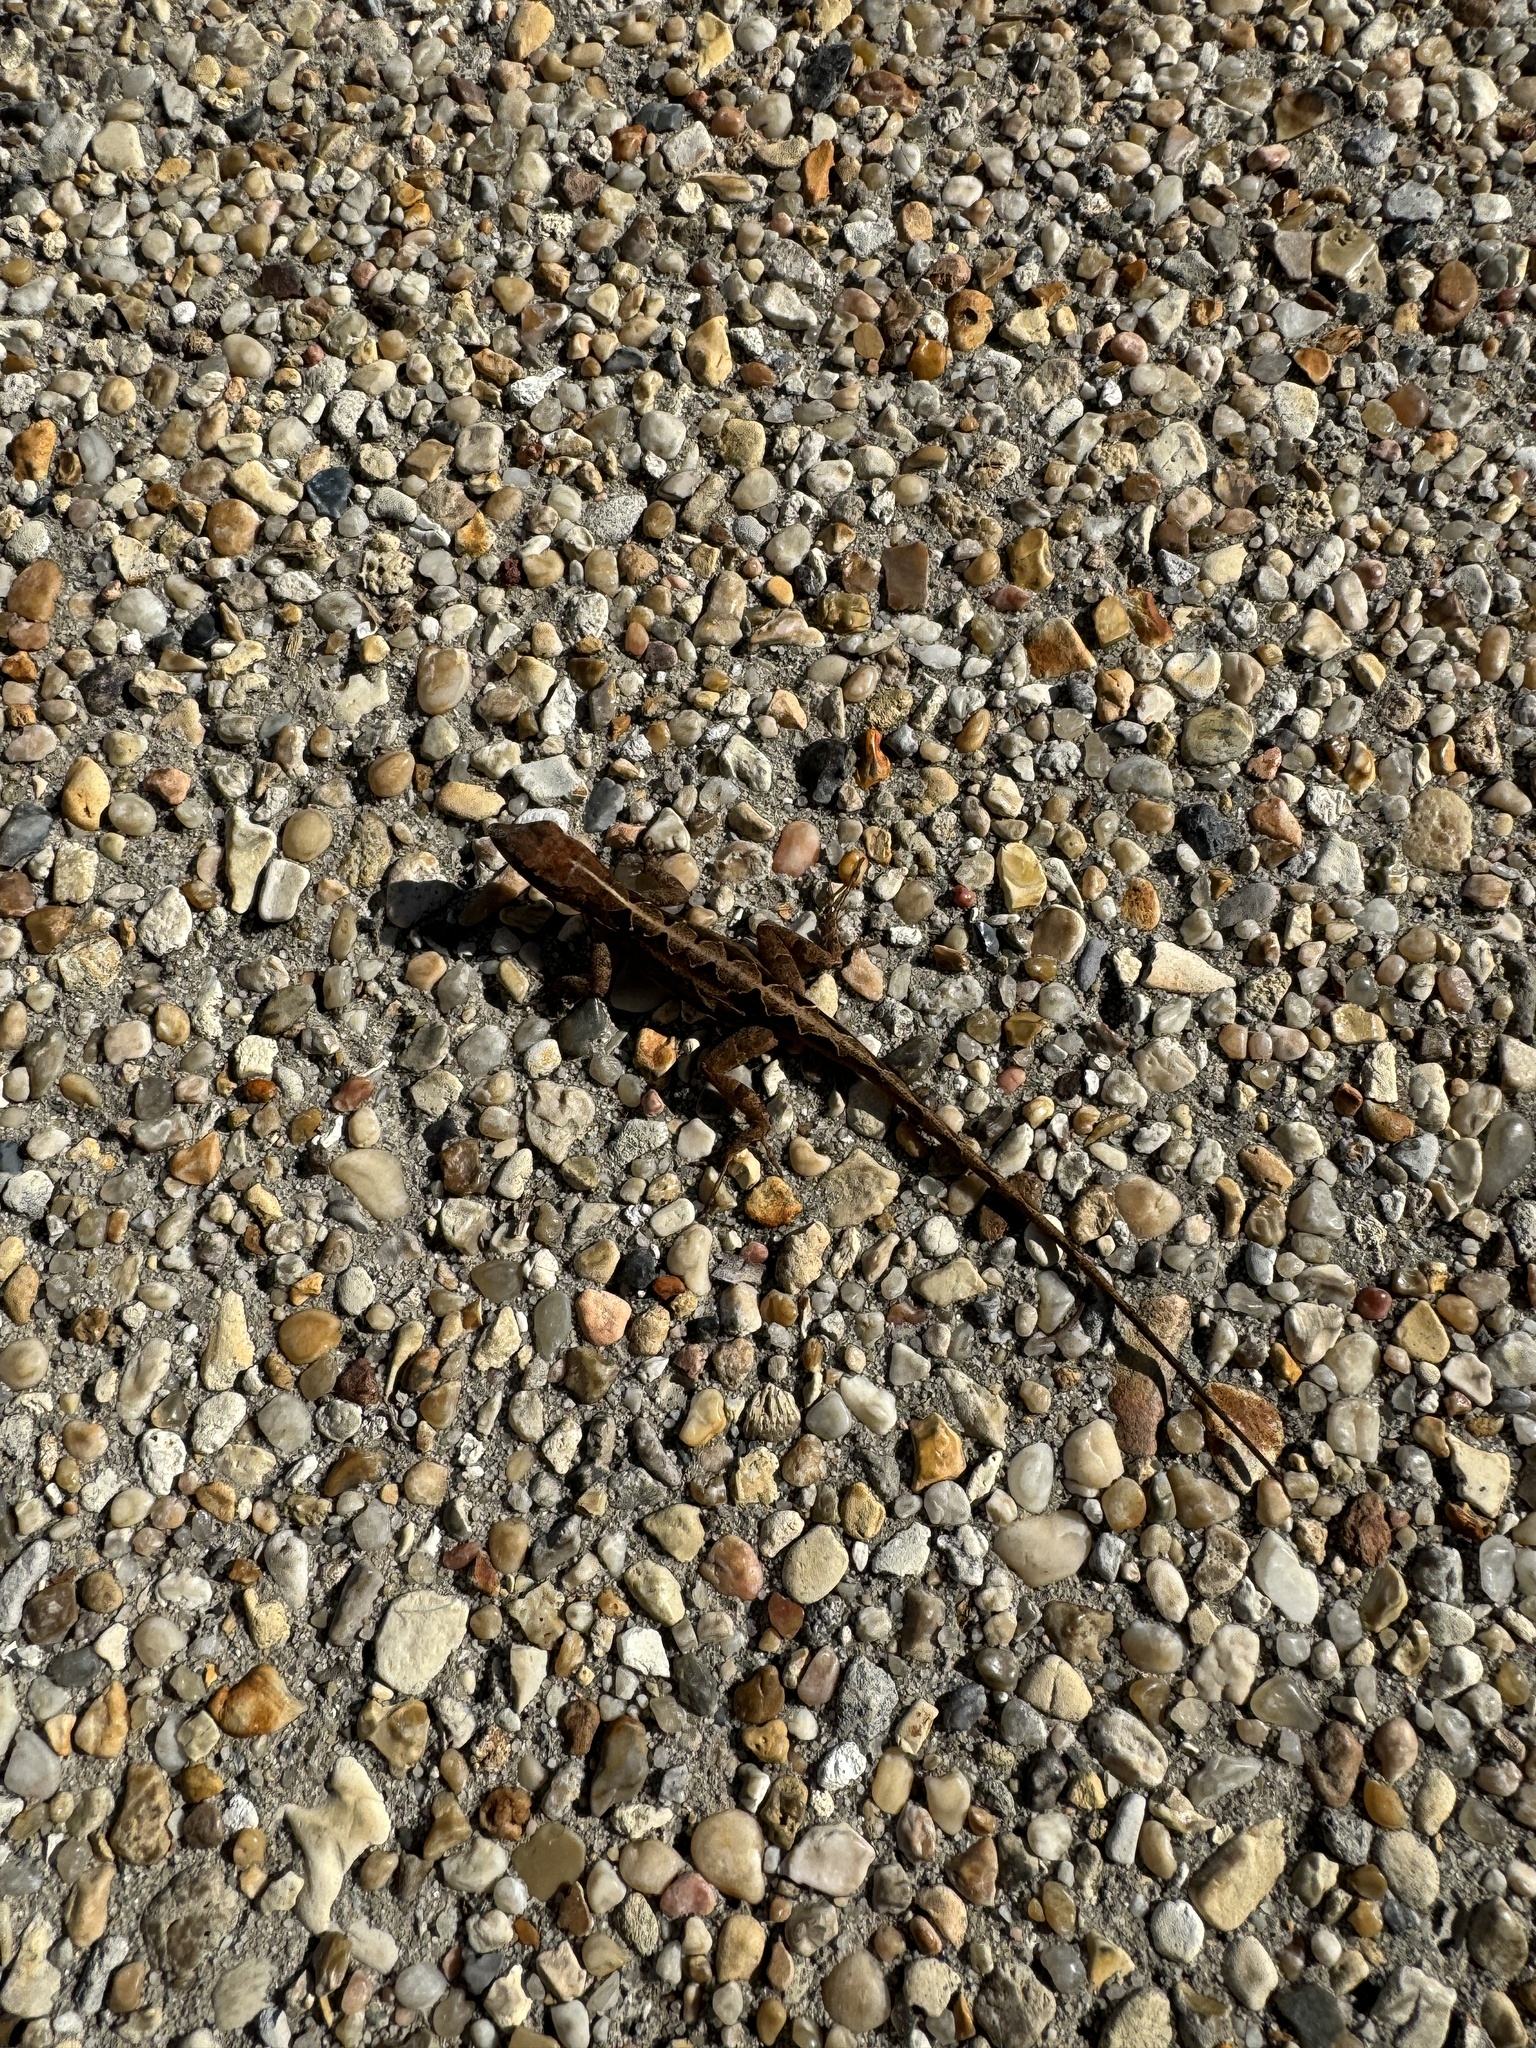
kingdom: Animalia
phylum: Chordata
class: Squamata
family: Dactyloidae
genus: Anolis
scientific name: Anolis sagrei
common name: Brown anole
